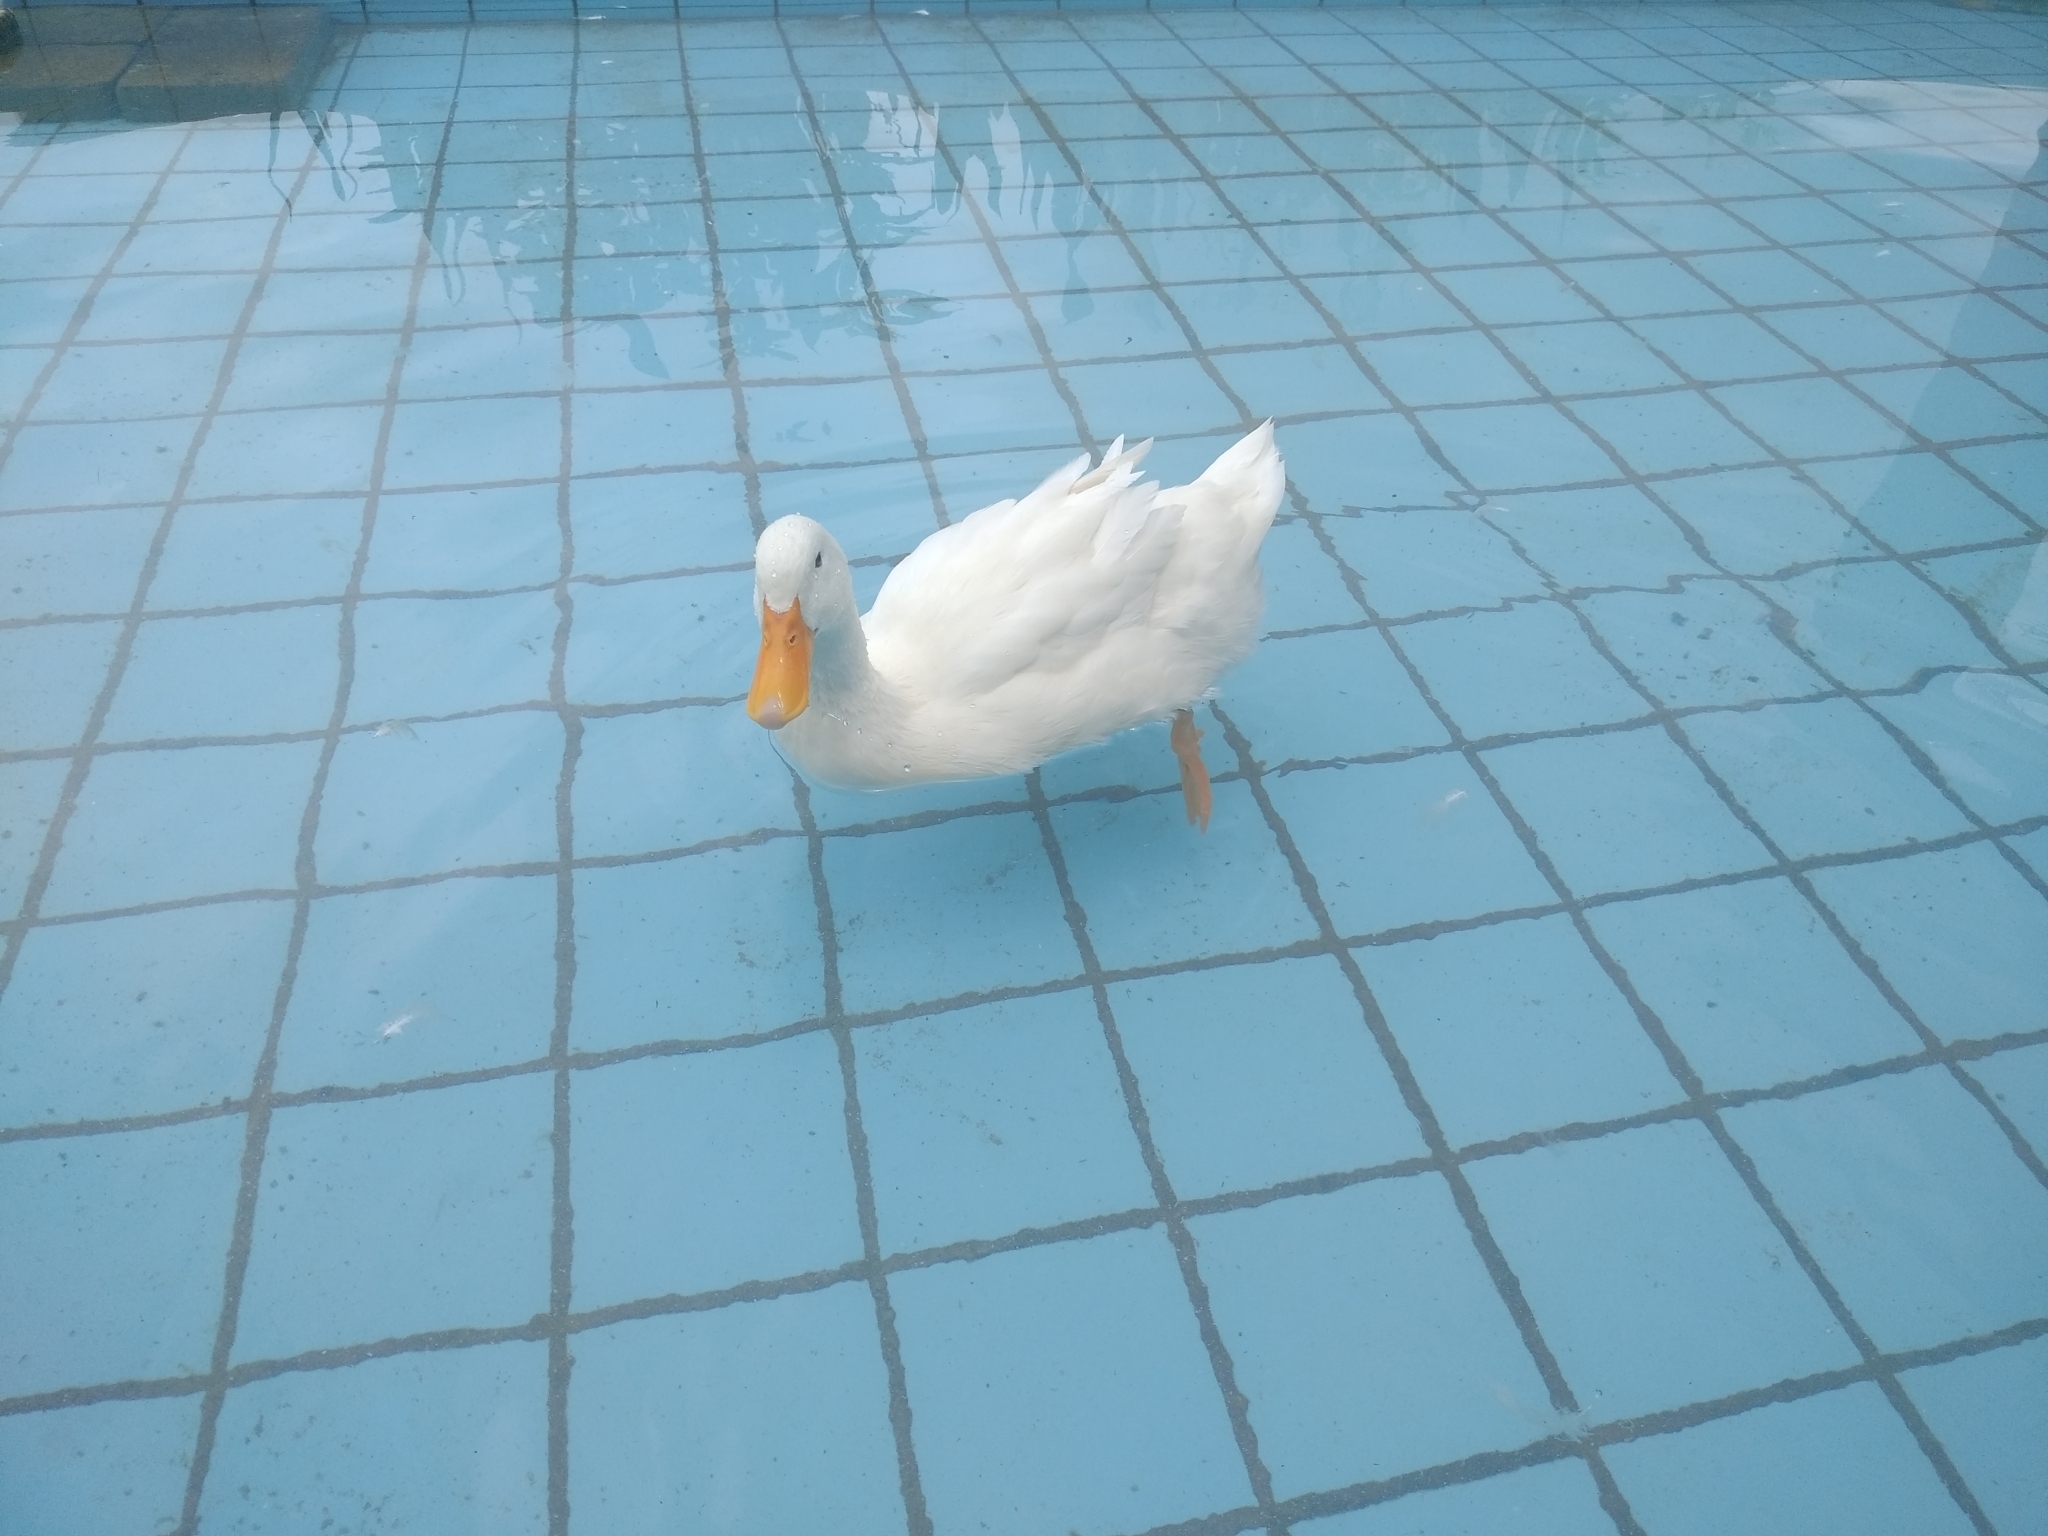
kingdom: Animalia
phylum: Chordata
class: Aves
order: Anseriformes
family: Anatidae
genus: Anas
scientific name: Anas platyrhynchos
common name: Mallard
